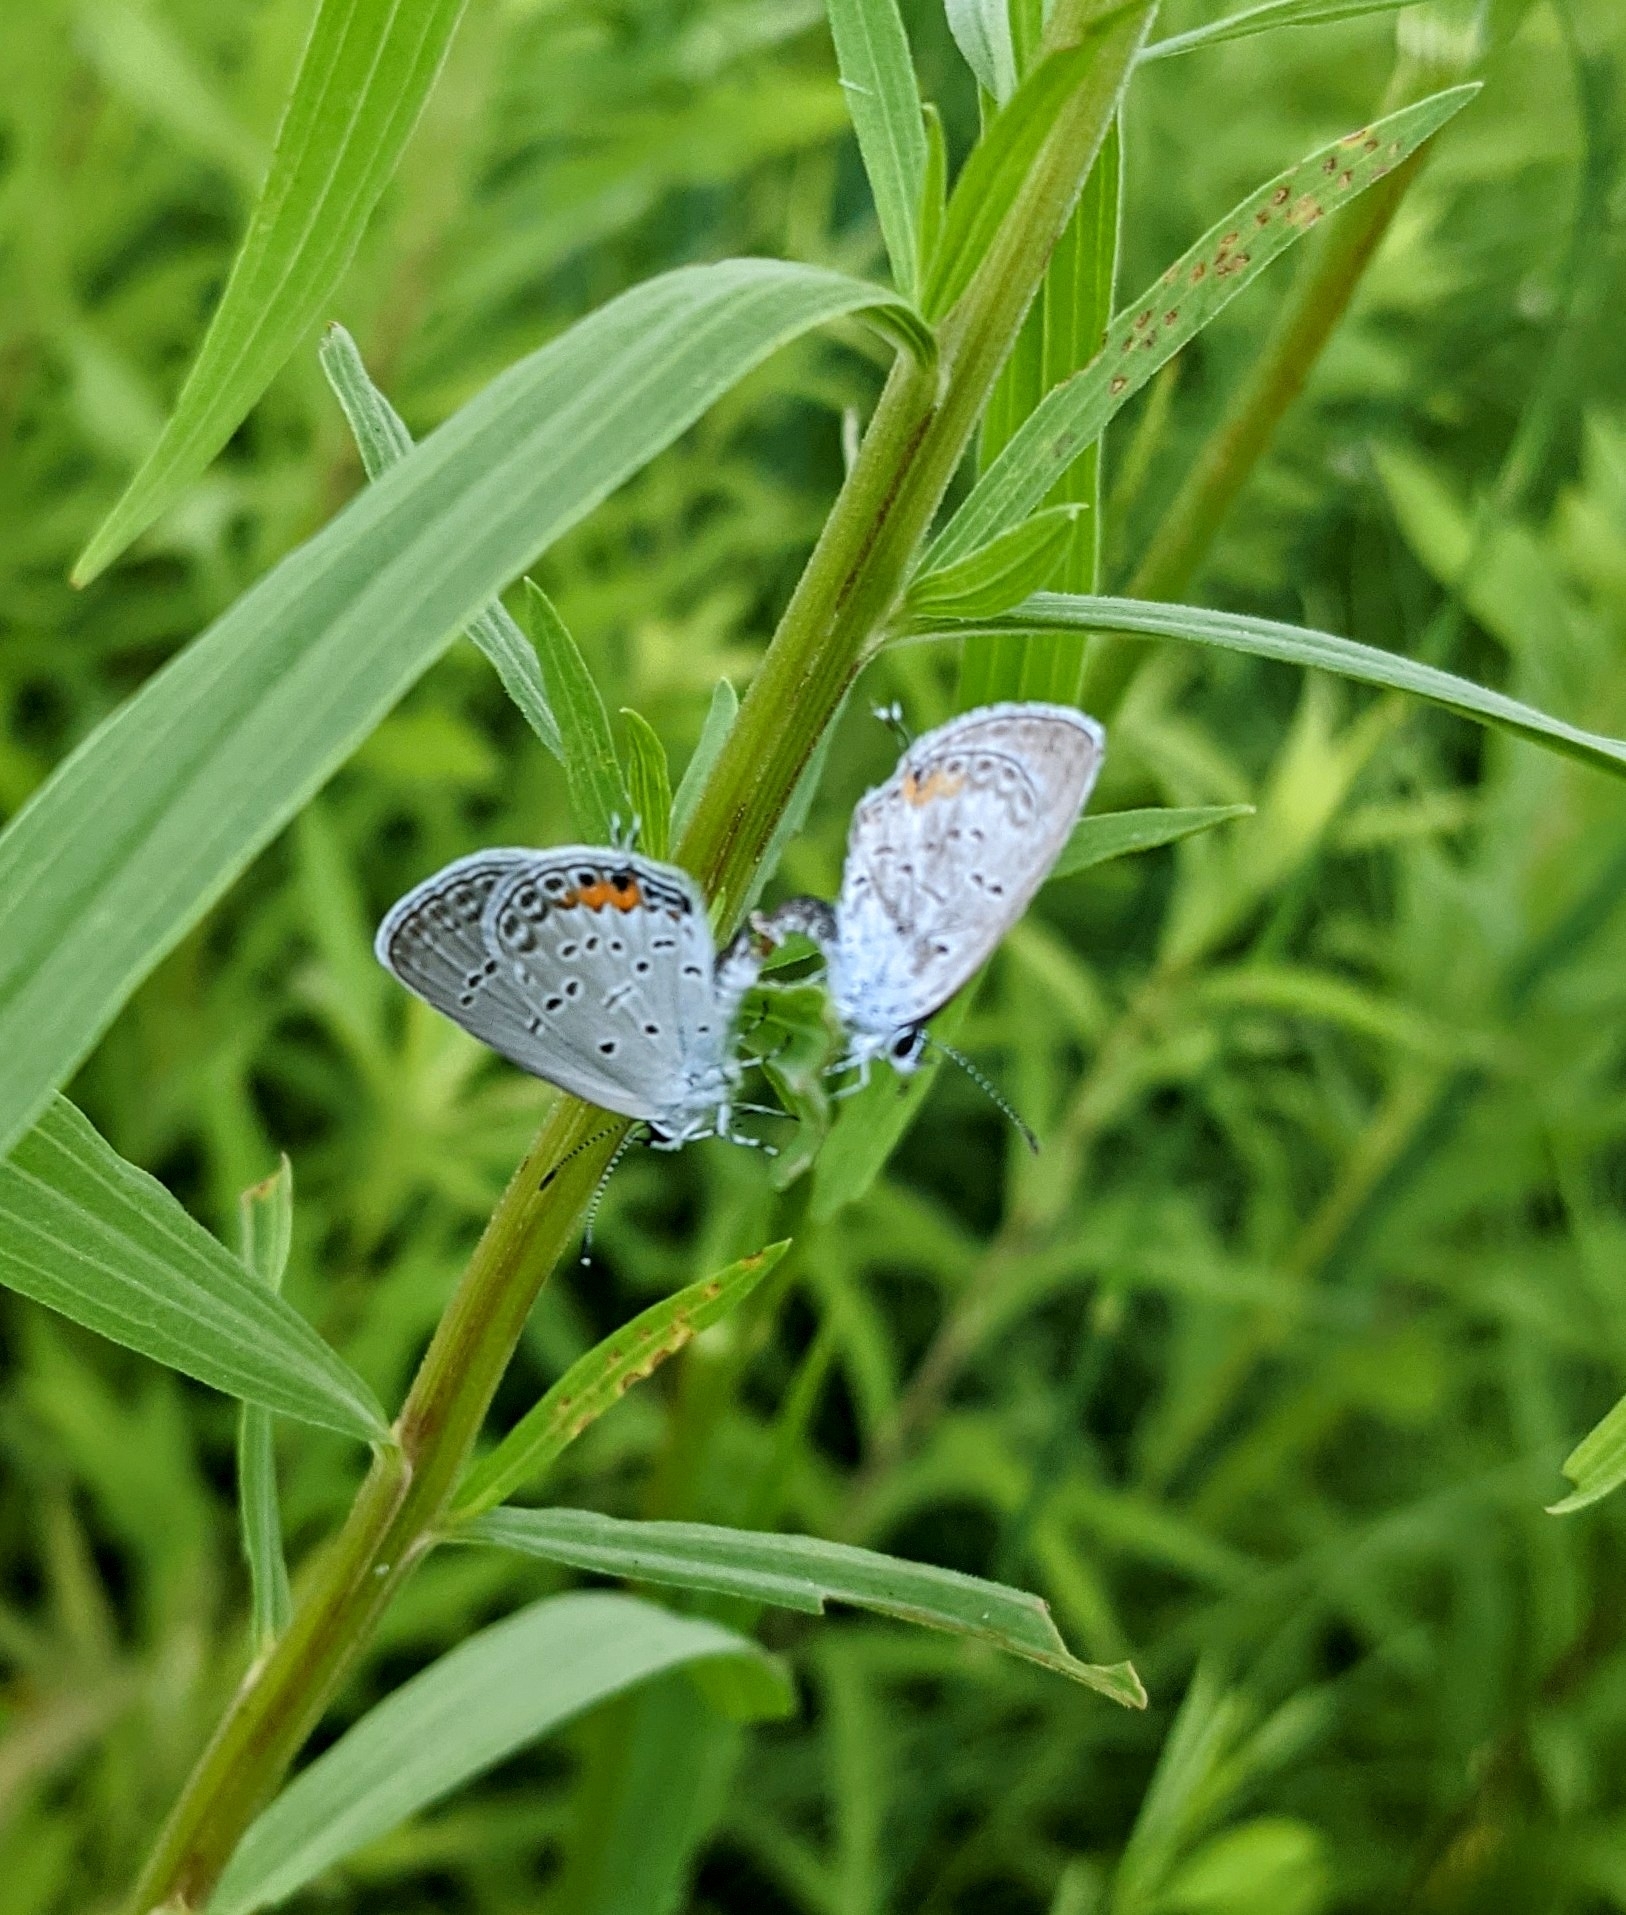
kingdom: Animalia
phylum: Arthropoda
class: Insecta
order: Lepidoptera
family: Lycaenidae
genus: Elkalyce
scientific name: Elkalyce comyntas
